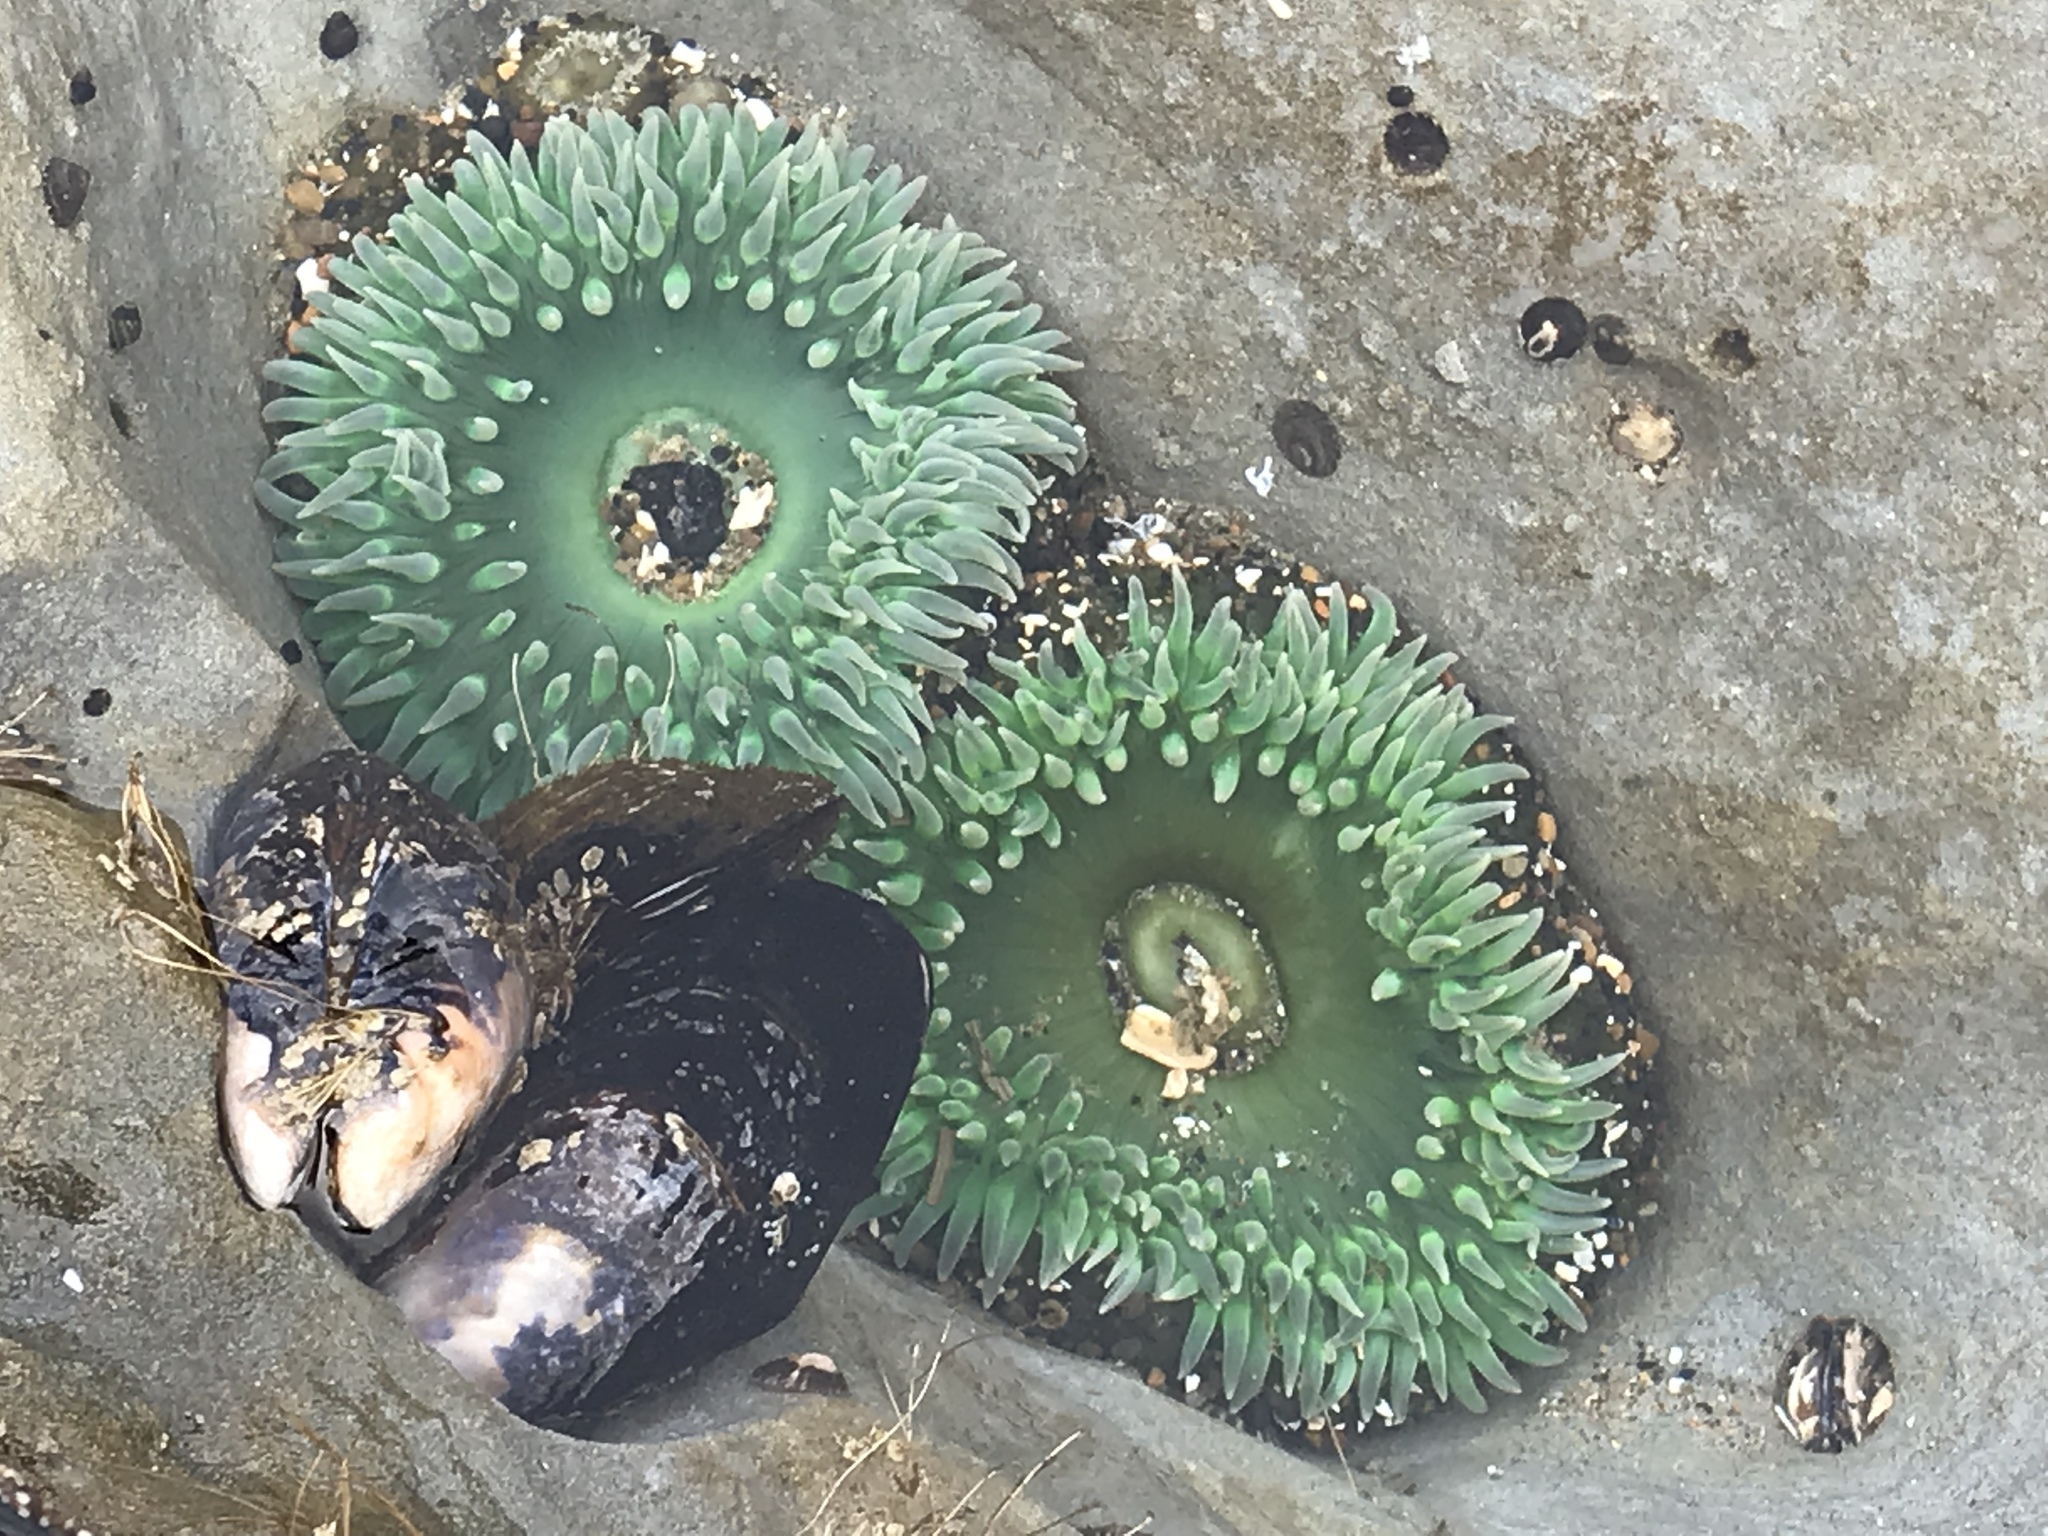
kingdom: Animalia
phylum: Cnidaria
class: Anthozoa
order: Actiniaria
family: Actiniidae
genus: Anthopleura
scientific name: Anthopleura xanthogrammica
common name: Giant green anemone
